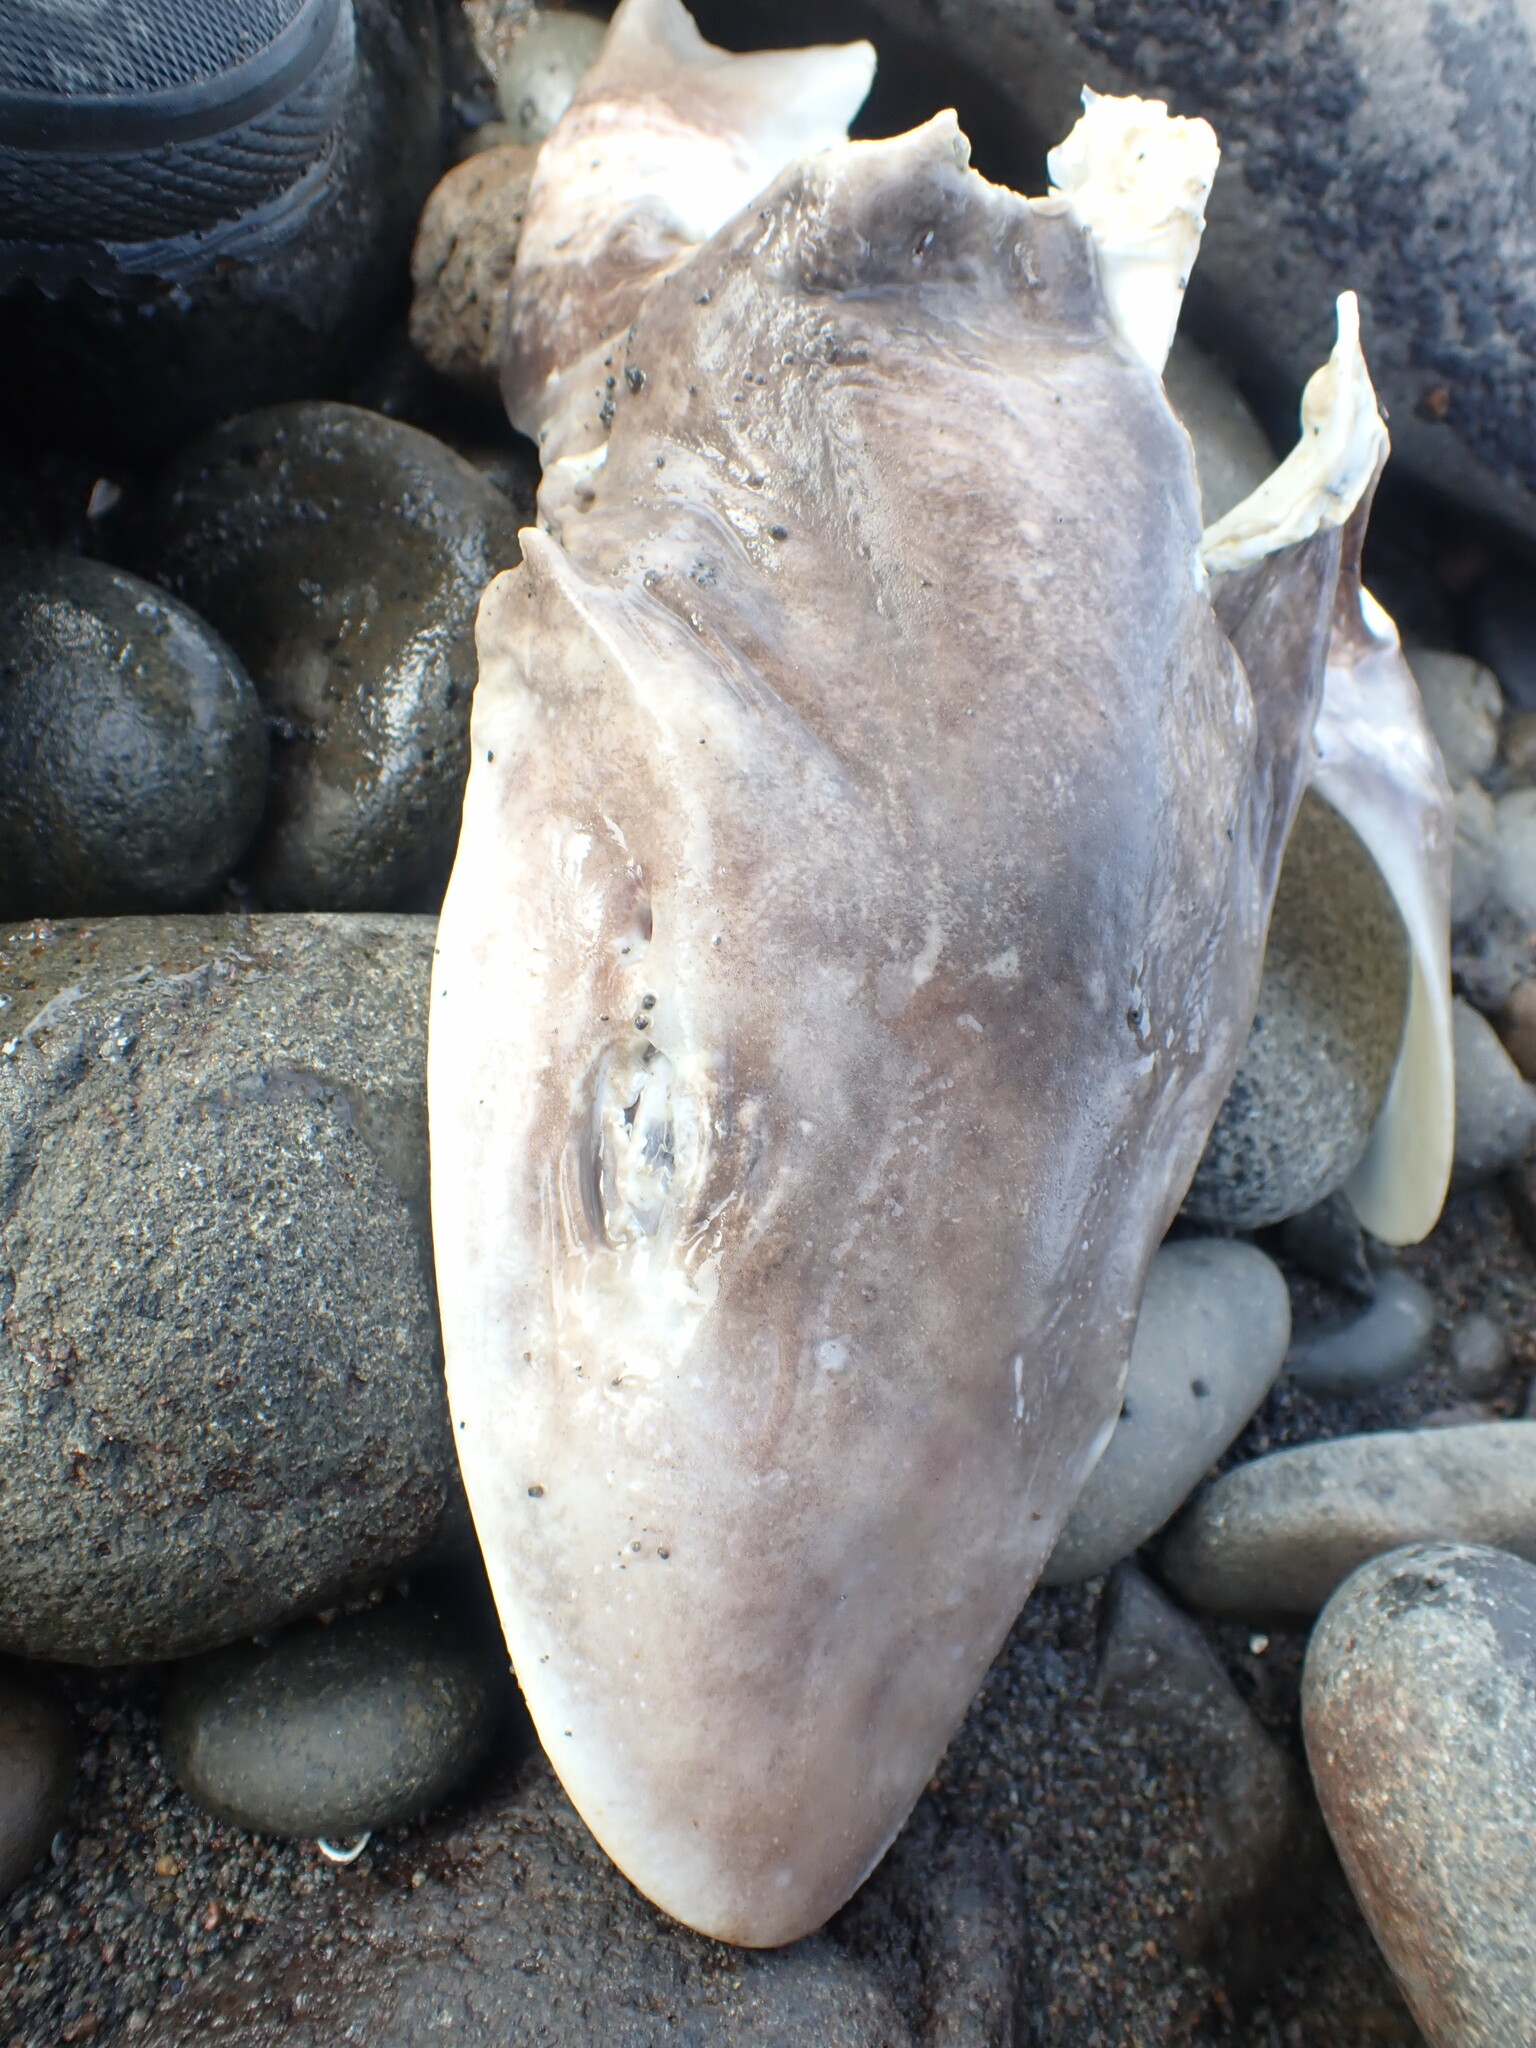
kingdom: Animalia
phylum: Chordata
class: Elasmobranchii
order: Carcharhiniformes
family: Triakidae
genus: Mustelus
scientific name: Mustelus lenticulatus
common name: Gummy shark
